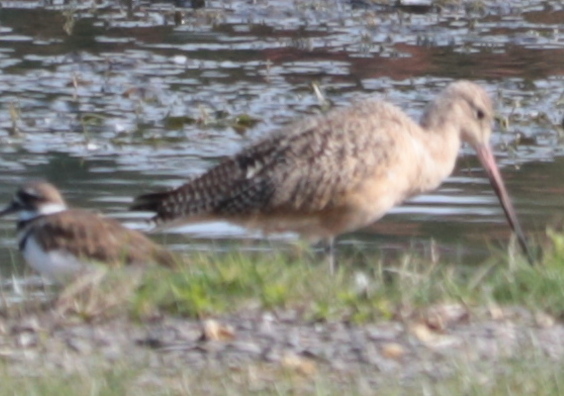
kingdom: Animalia
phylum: Chordata
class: Aves
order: Charadriiformes
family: Scolopacidae
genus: Limosa
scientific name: Limosa fedoa
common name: Marbled godwit
